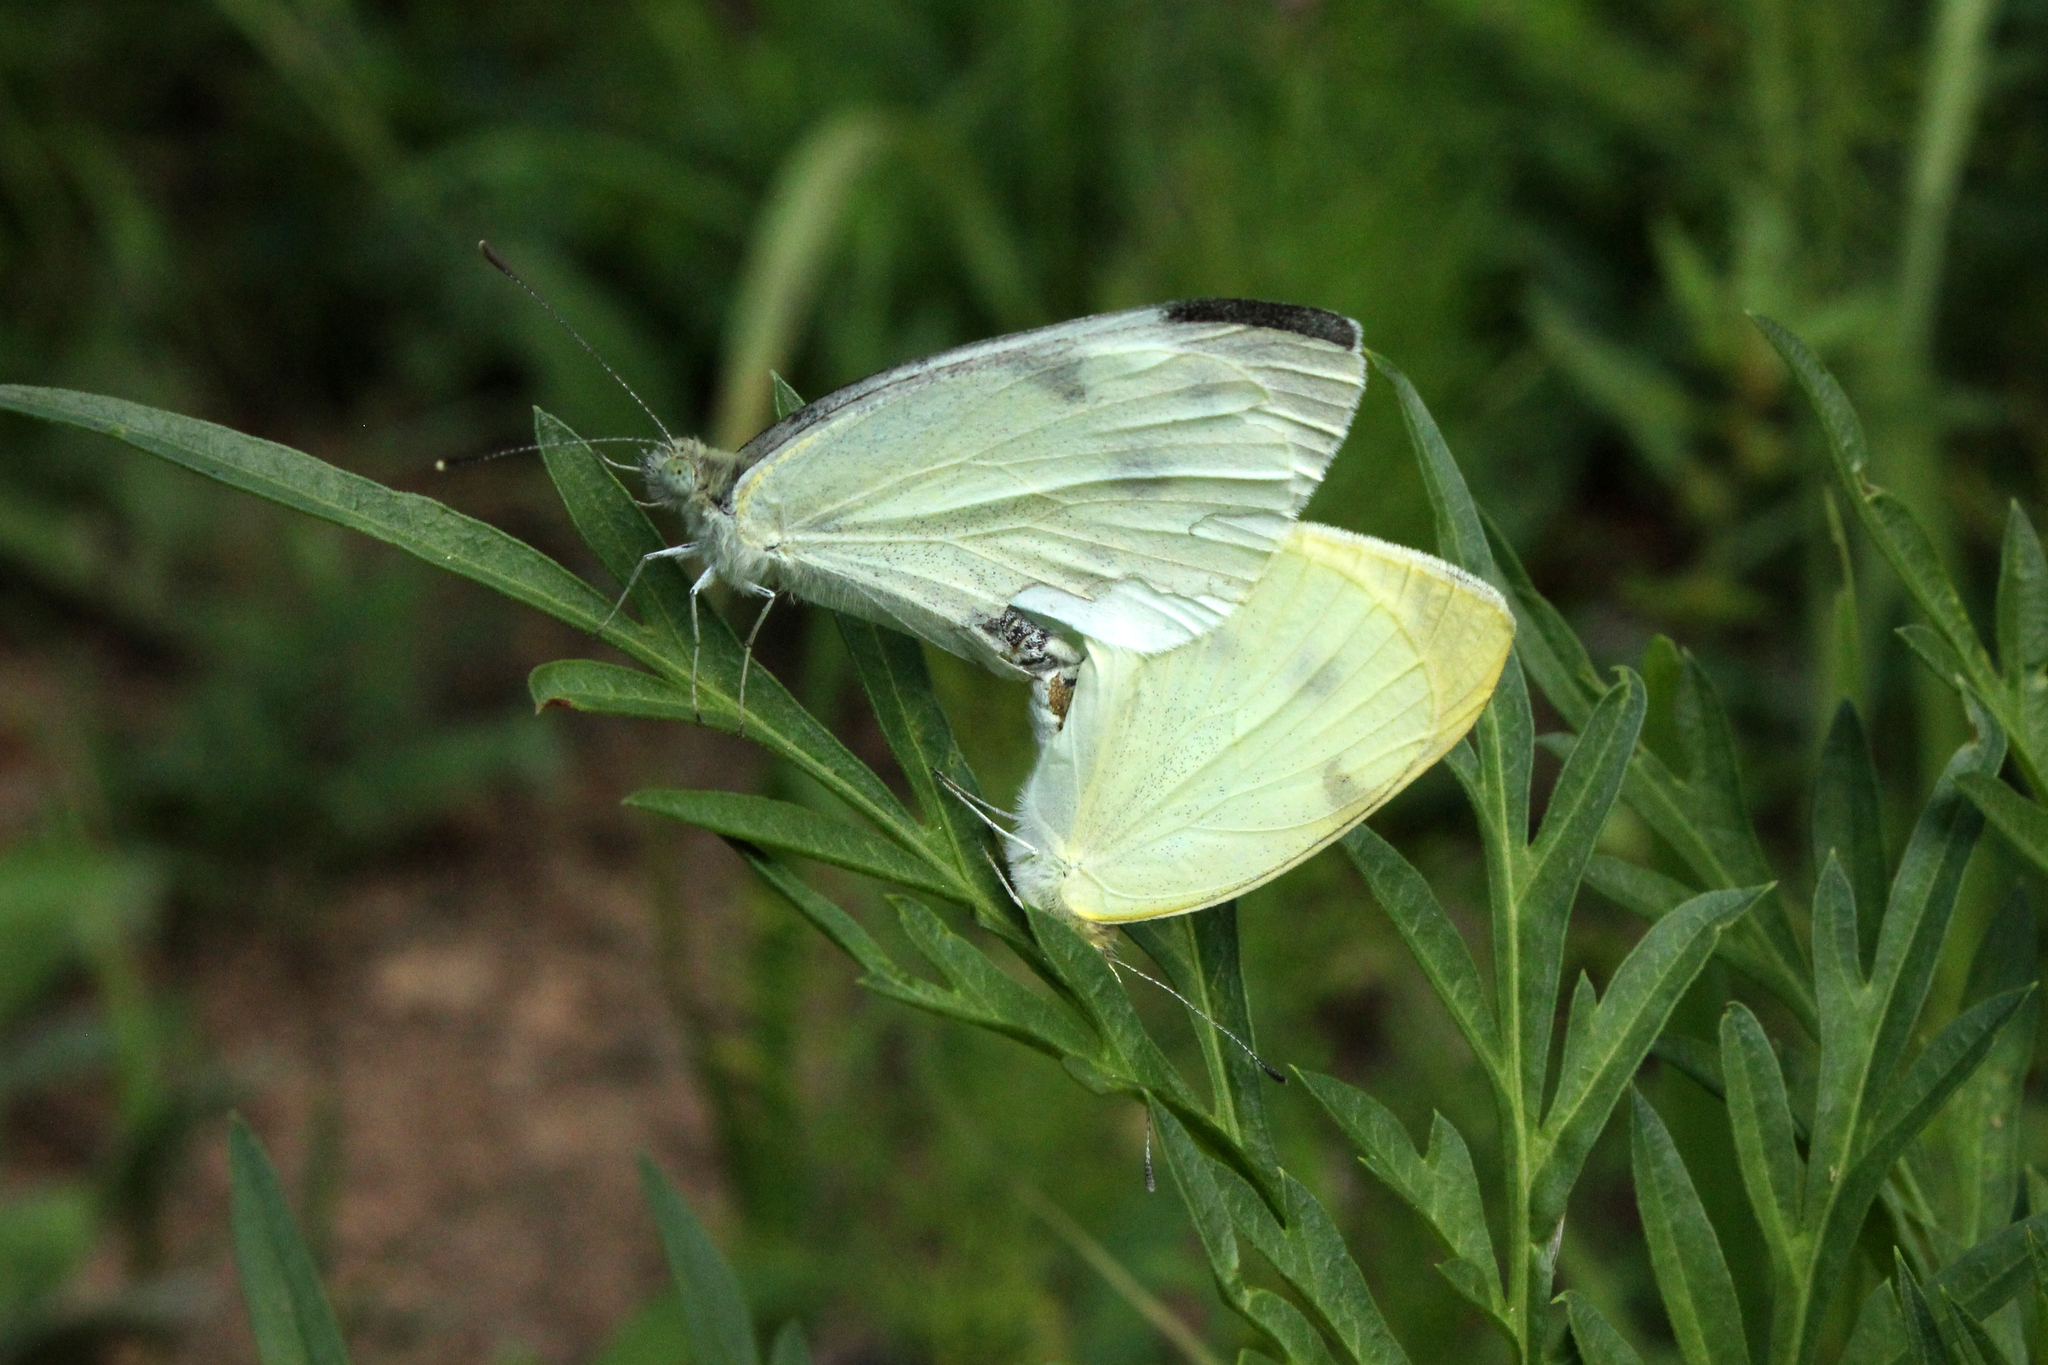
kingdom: Animalia
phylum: Arthropoda
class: Insecta
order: Lepidoptera
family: Pieridae
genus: Pieris
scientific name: Pieris rapae
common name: Small white
